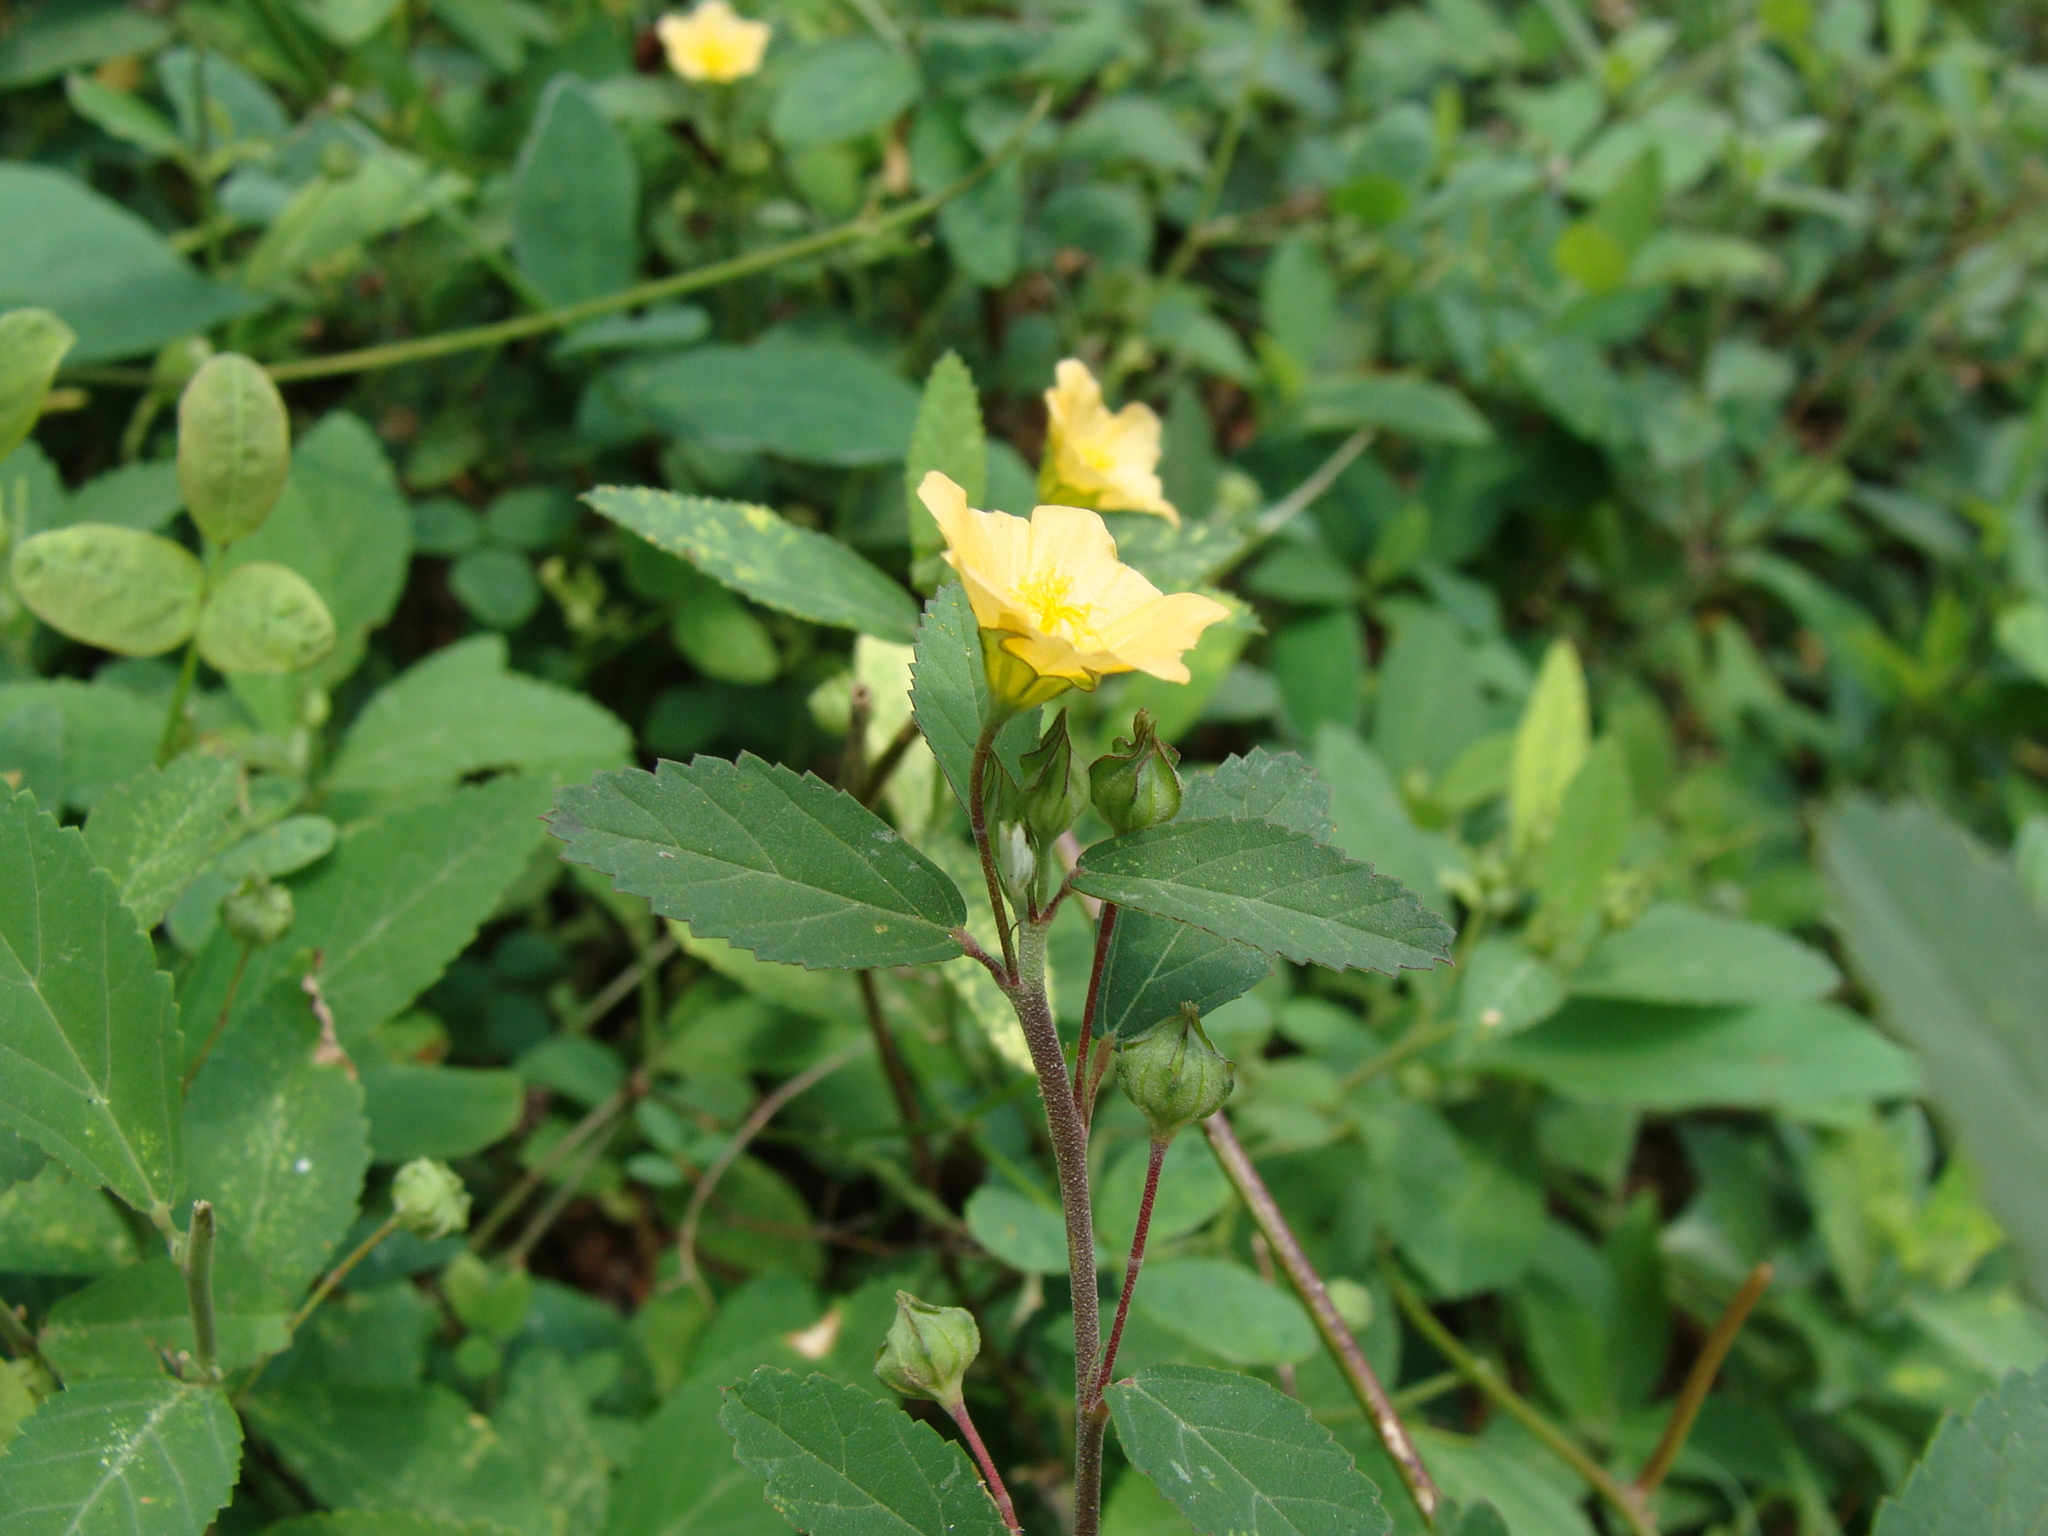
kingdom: Plantae
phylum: Tracheophyta
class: Magnoliopsida
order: Malvales
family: Malvaceae
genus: Sida
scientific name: Sida acuta
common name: Common wireweed
